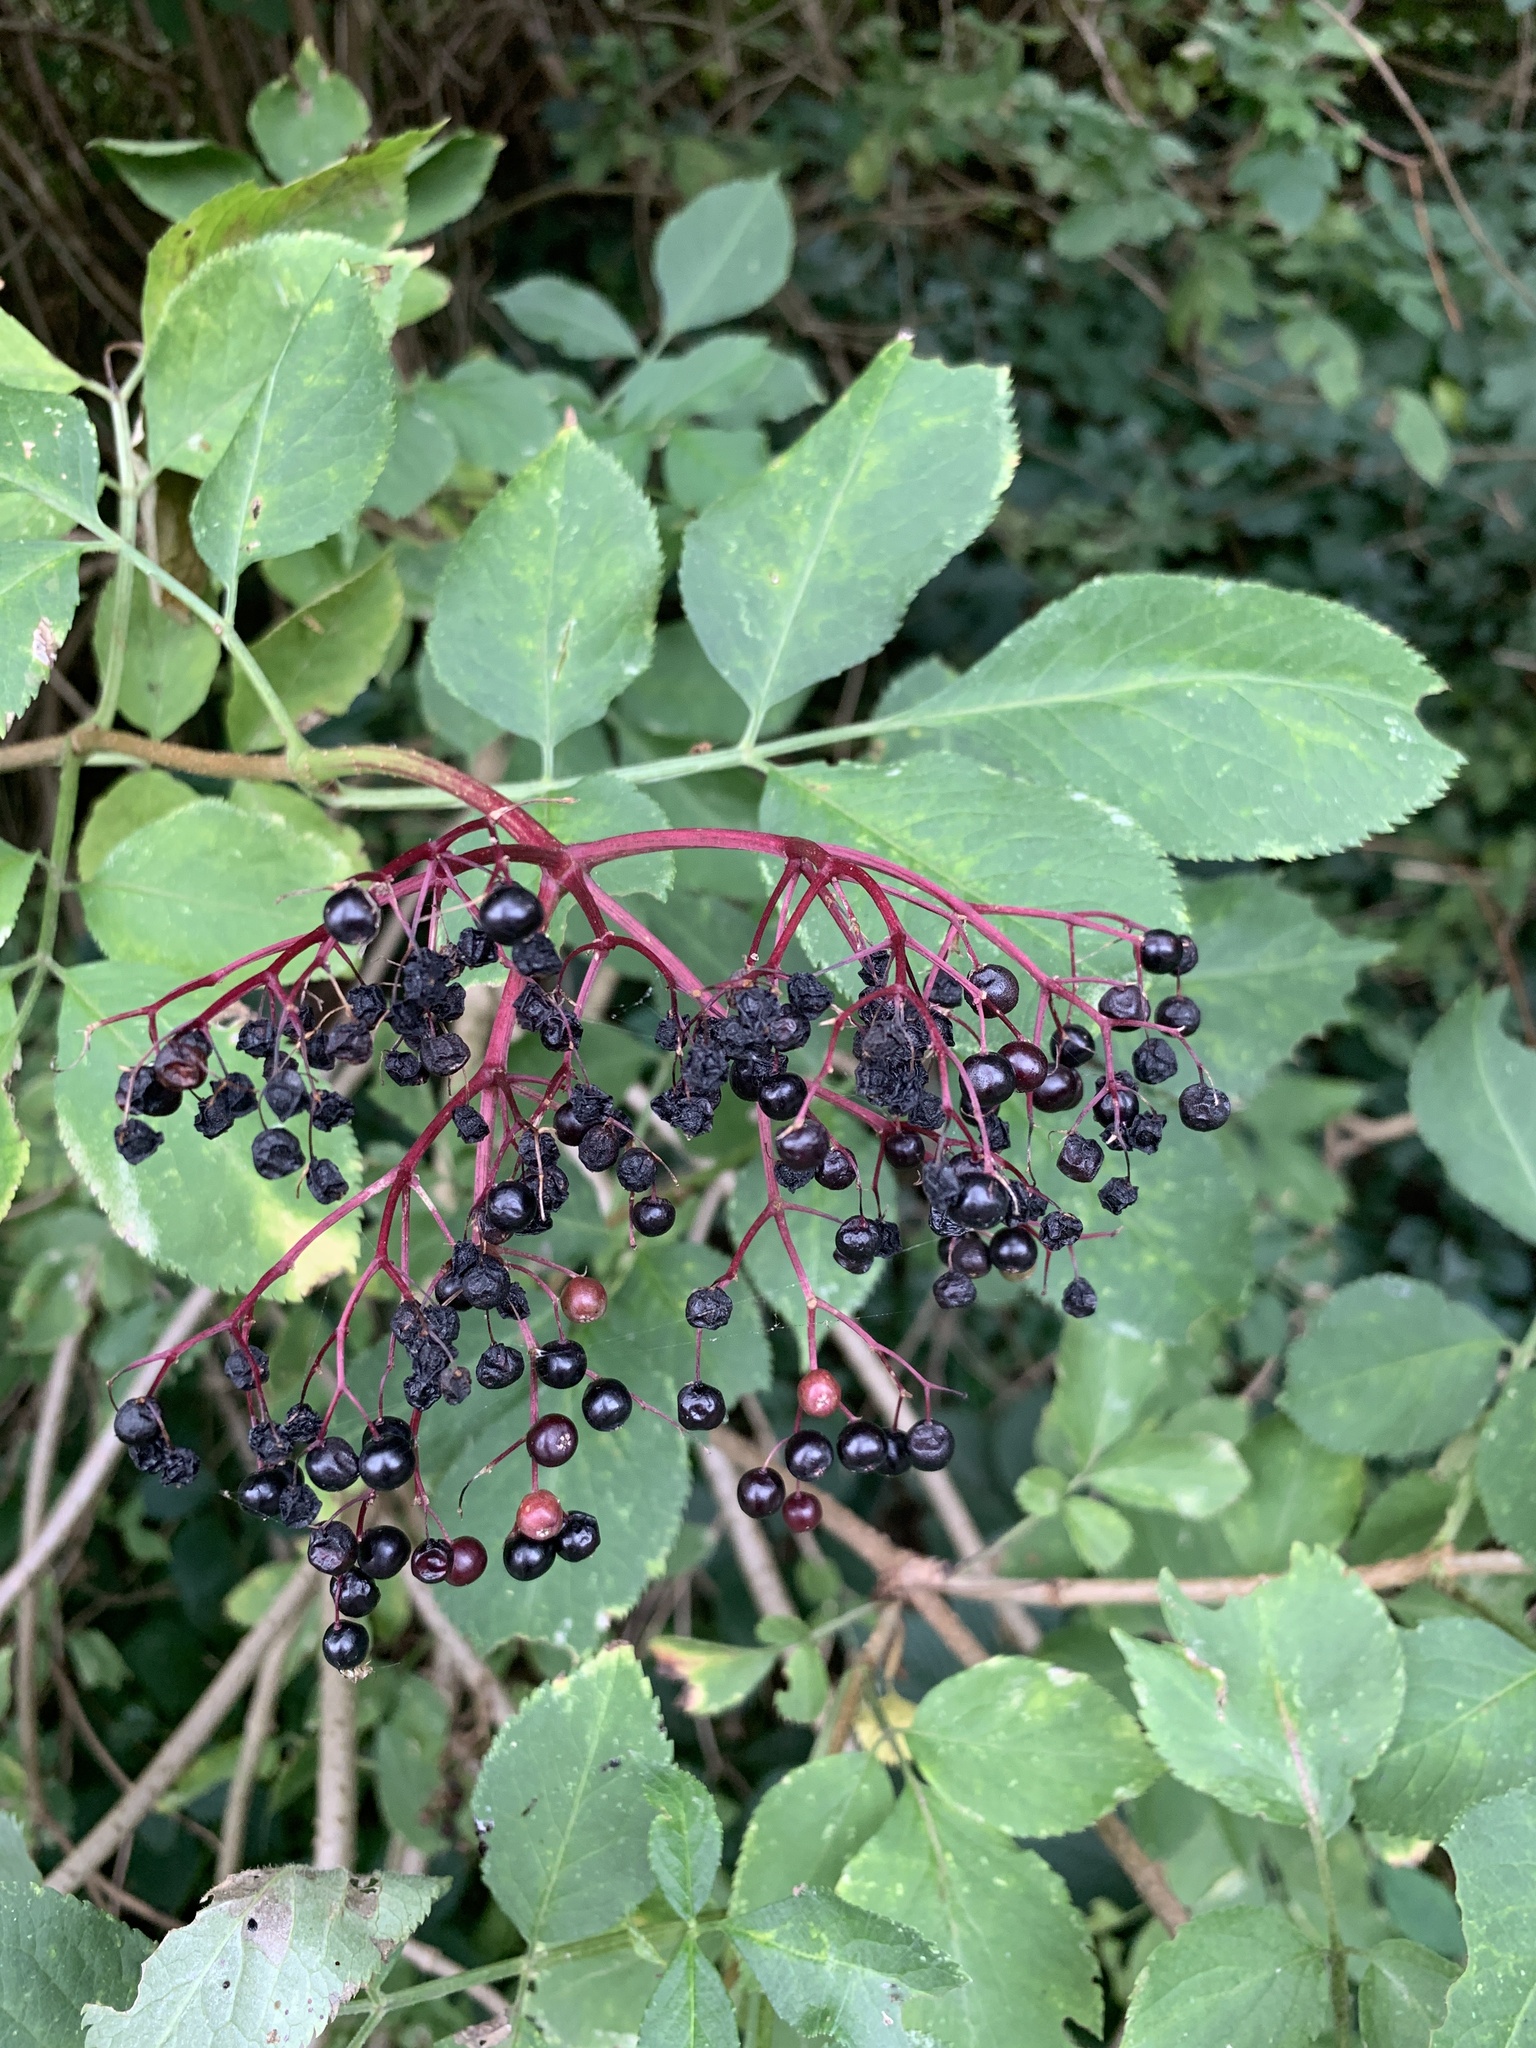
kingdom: Plantae
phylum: Tracheophyta
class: Magnoliopsida
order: Dipsacales
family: Viburnaceae
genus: Sambucus
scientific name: Sambucus nigra
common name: Elder
